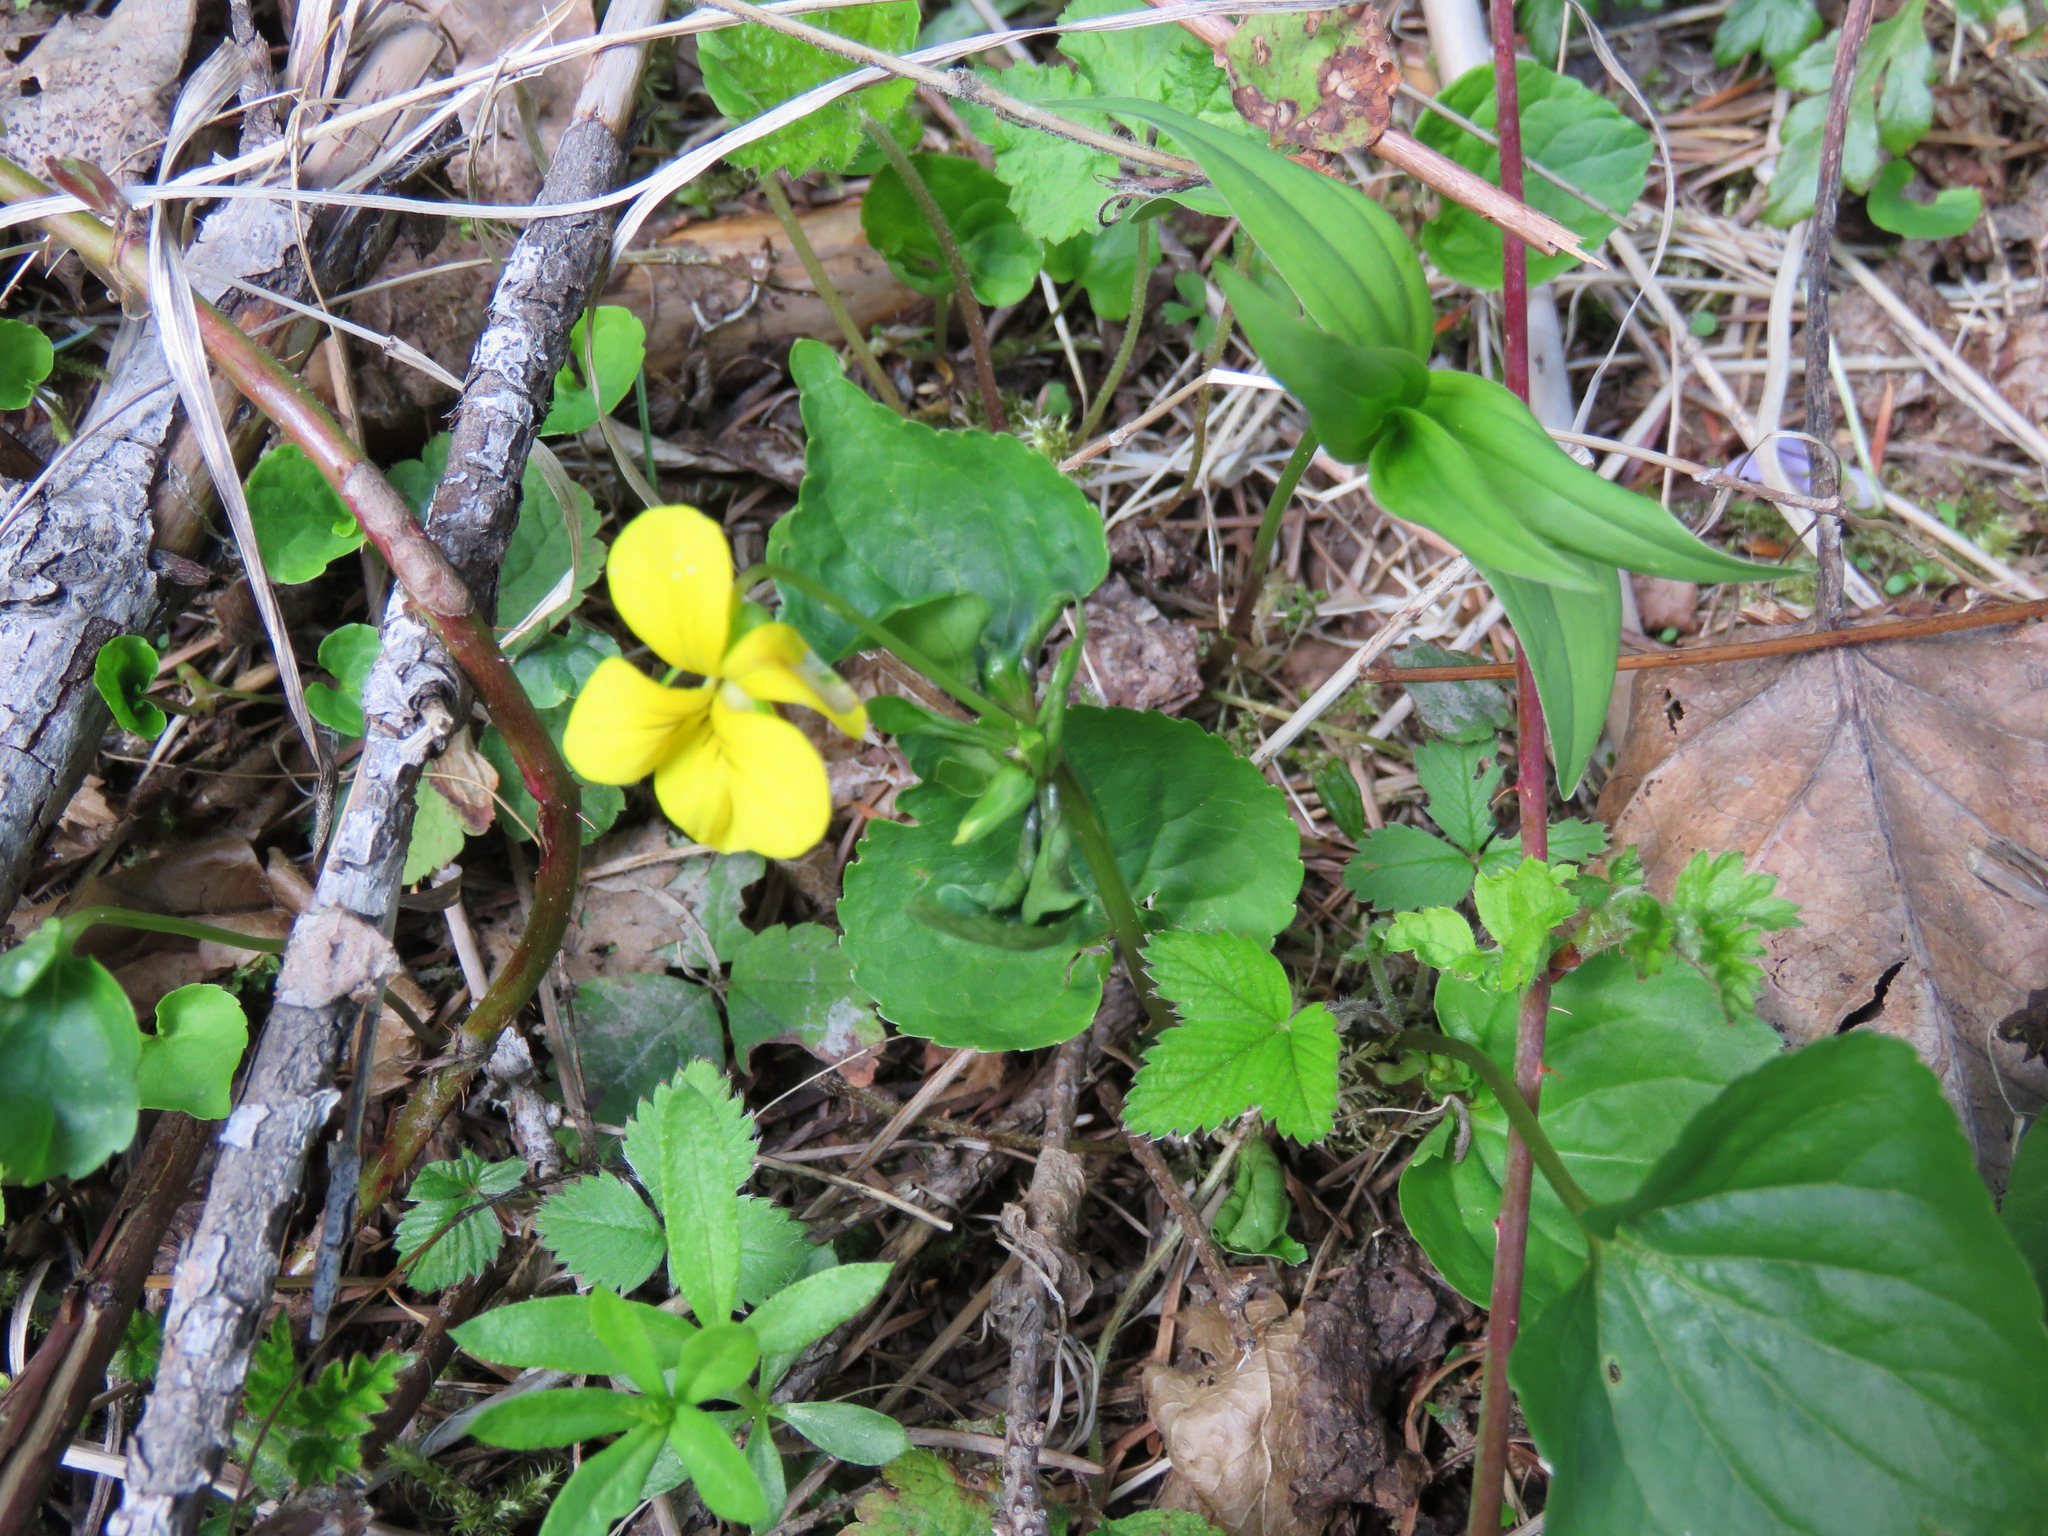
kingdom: Plantae
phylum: Tracheophyta
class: Magnoliopsida
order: Malpighiales
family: Violaceae
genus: Viola
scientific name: Viola glabella
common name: Stream violet
